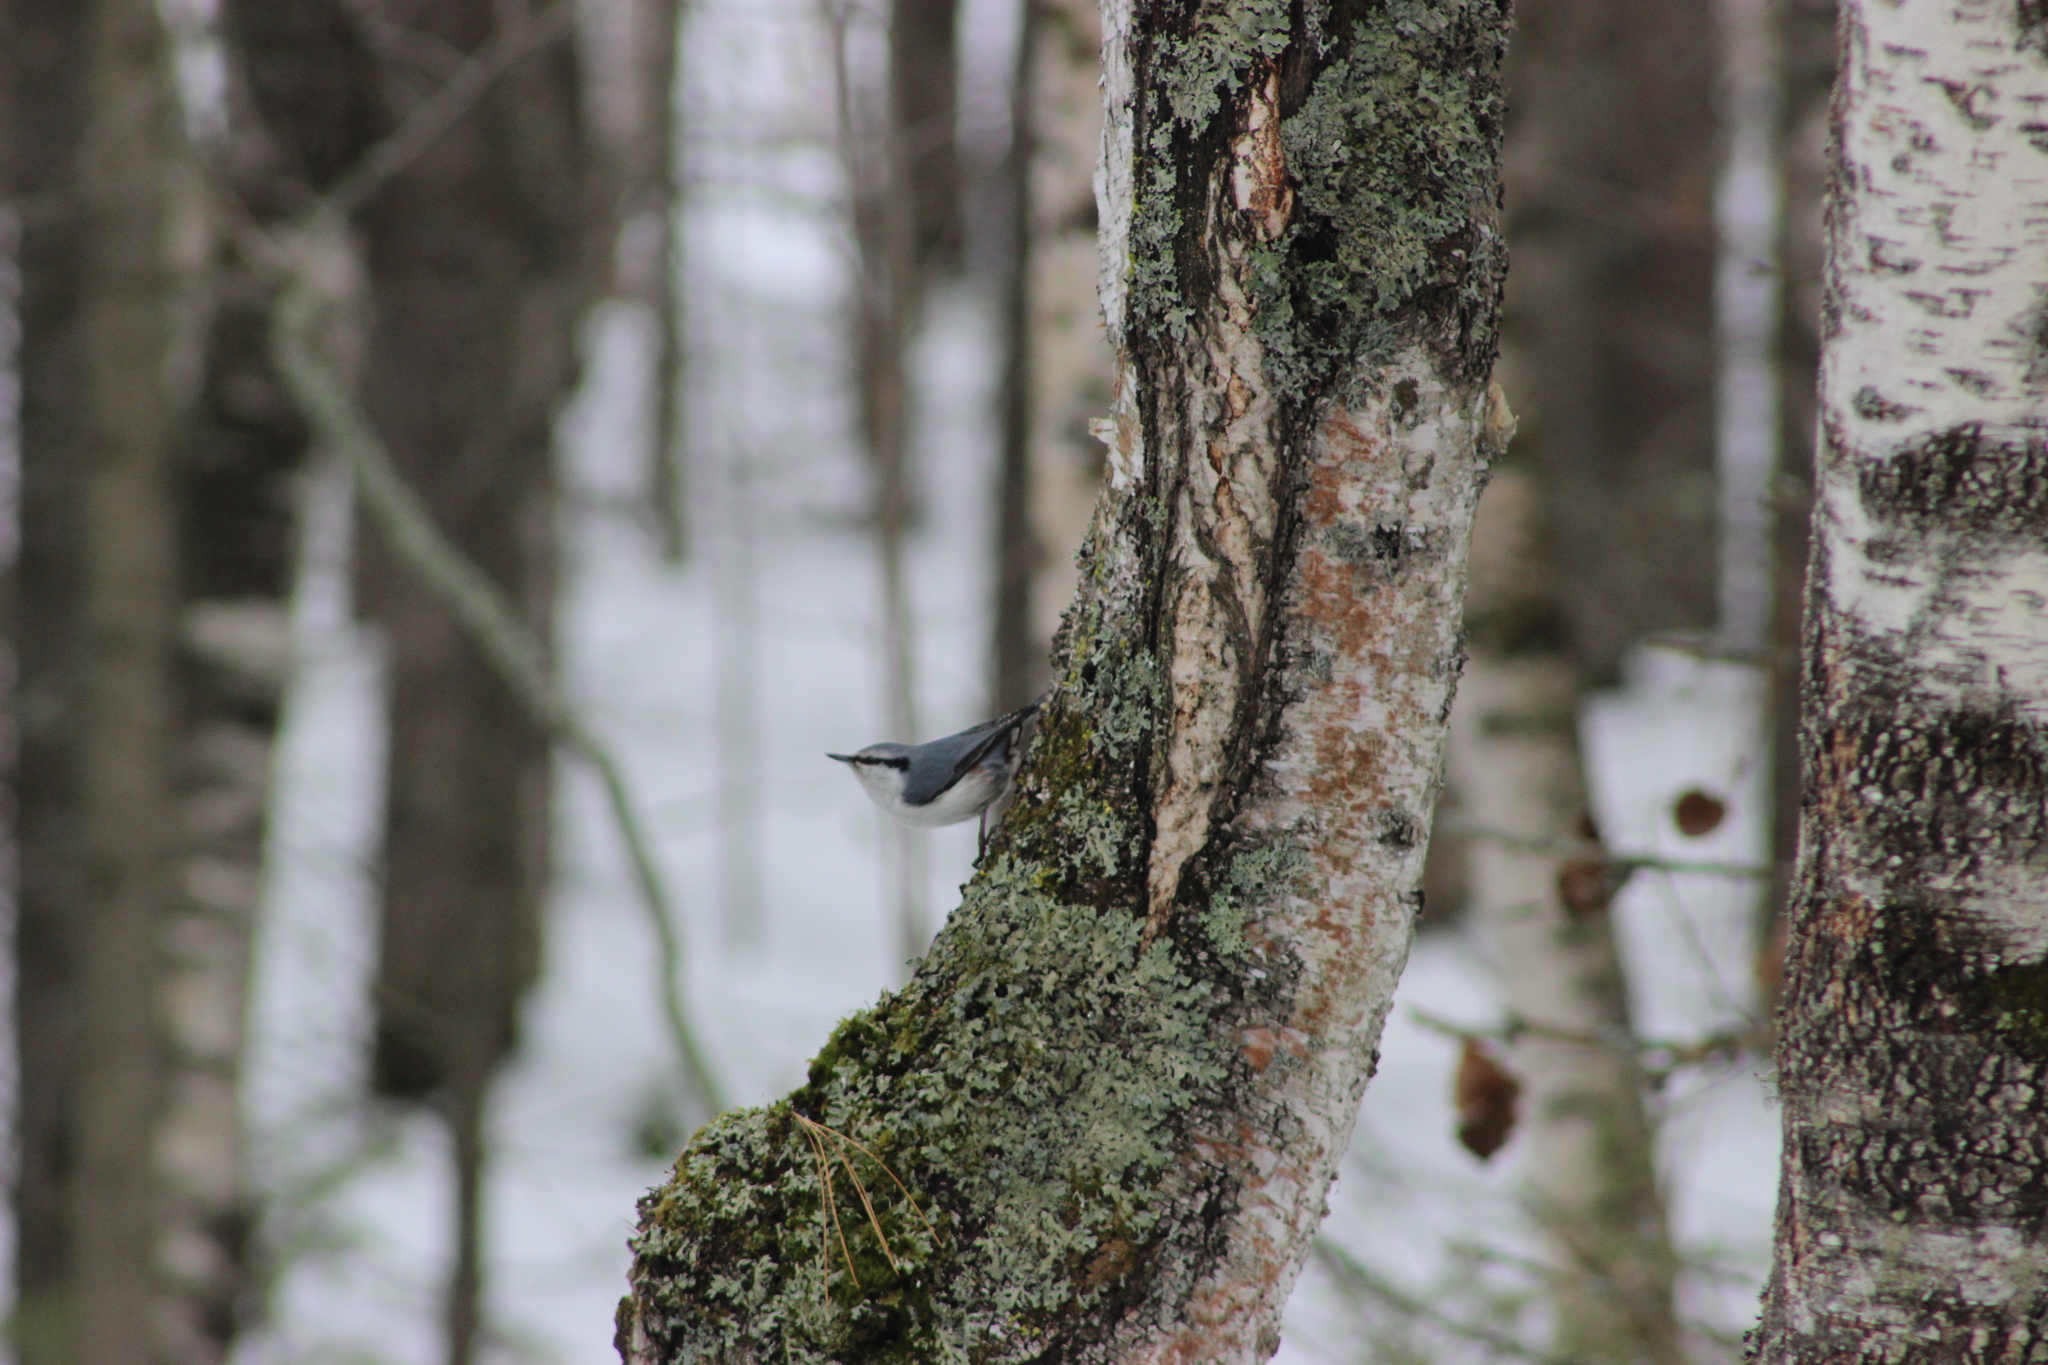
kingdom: Animalia
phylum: Chordata
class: Aves
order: Passeriformes
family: Sittidae
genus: Sitta
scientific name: Sitta europaea
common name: Eurasian nuthatch
